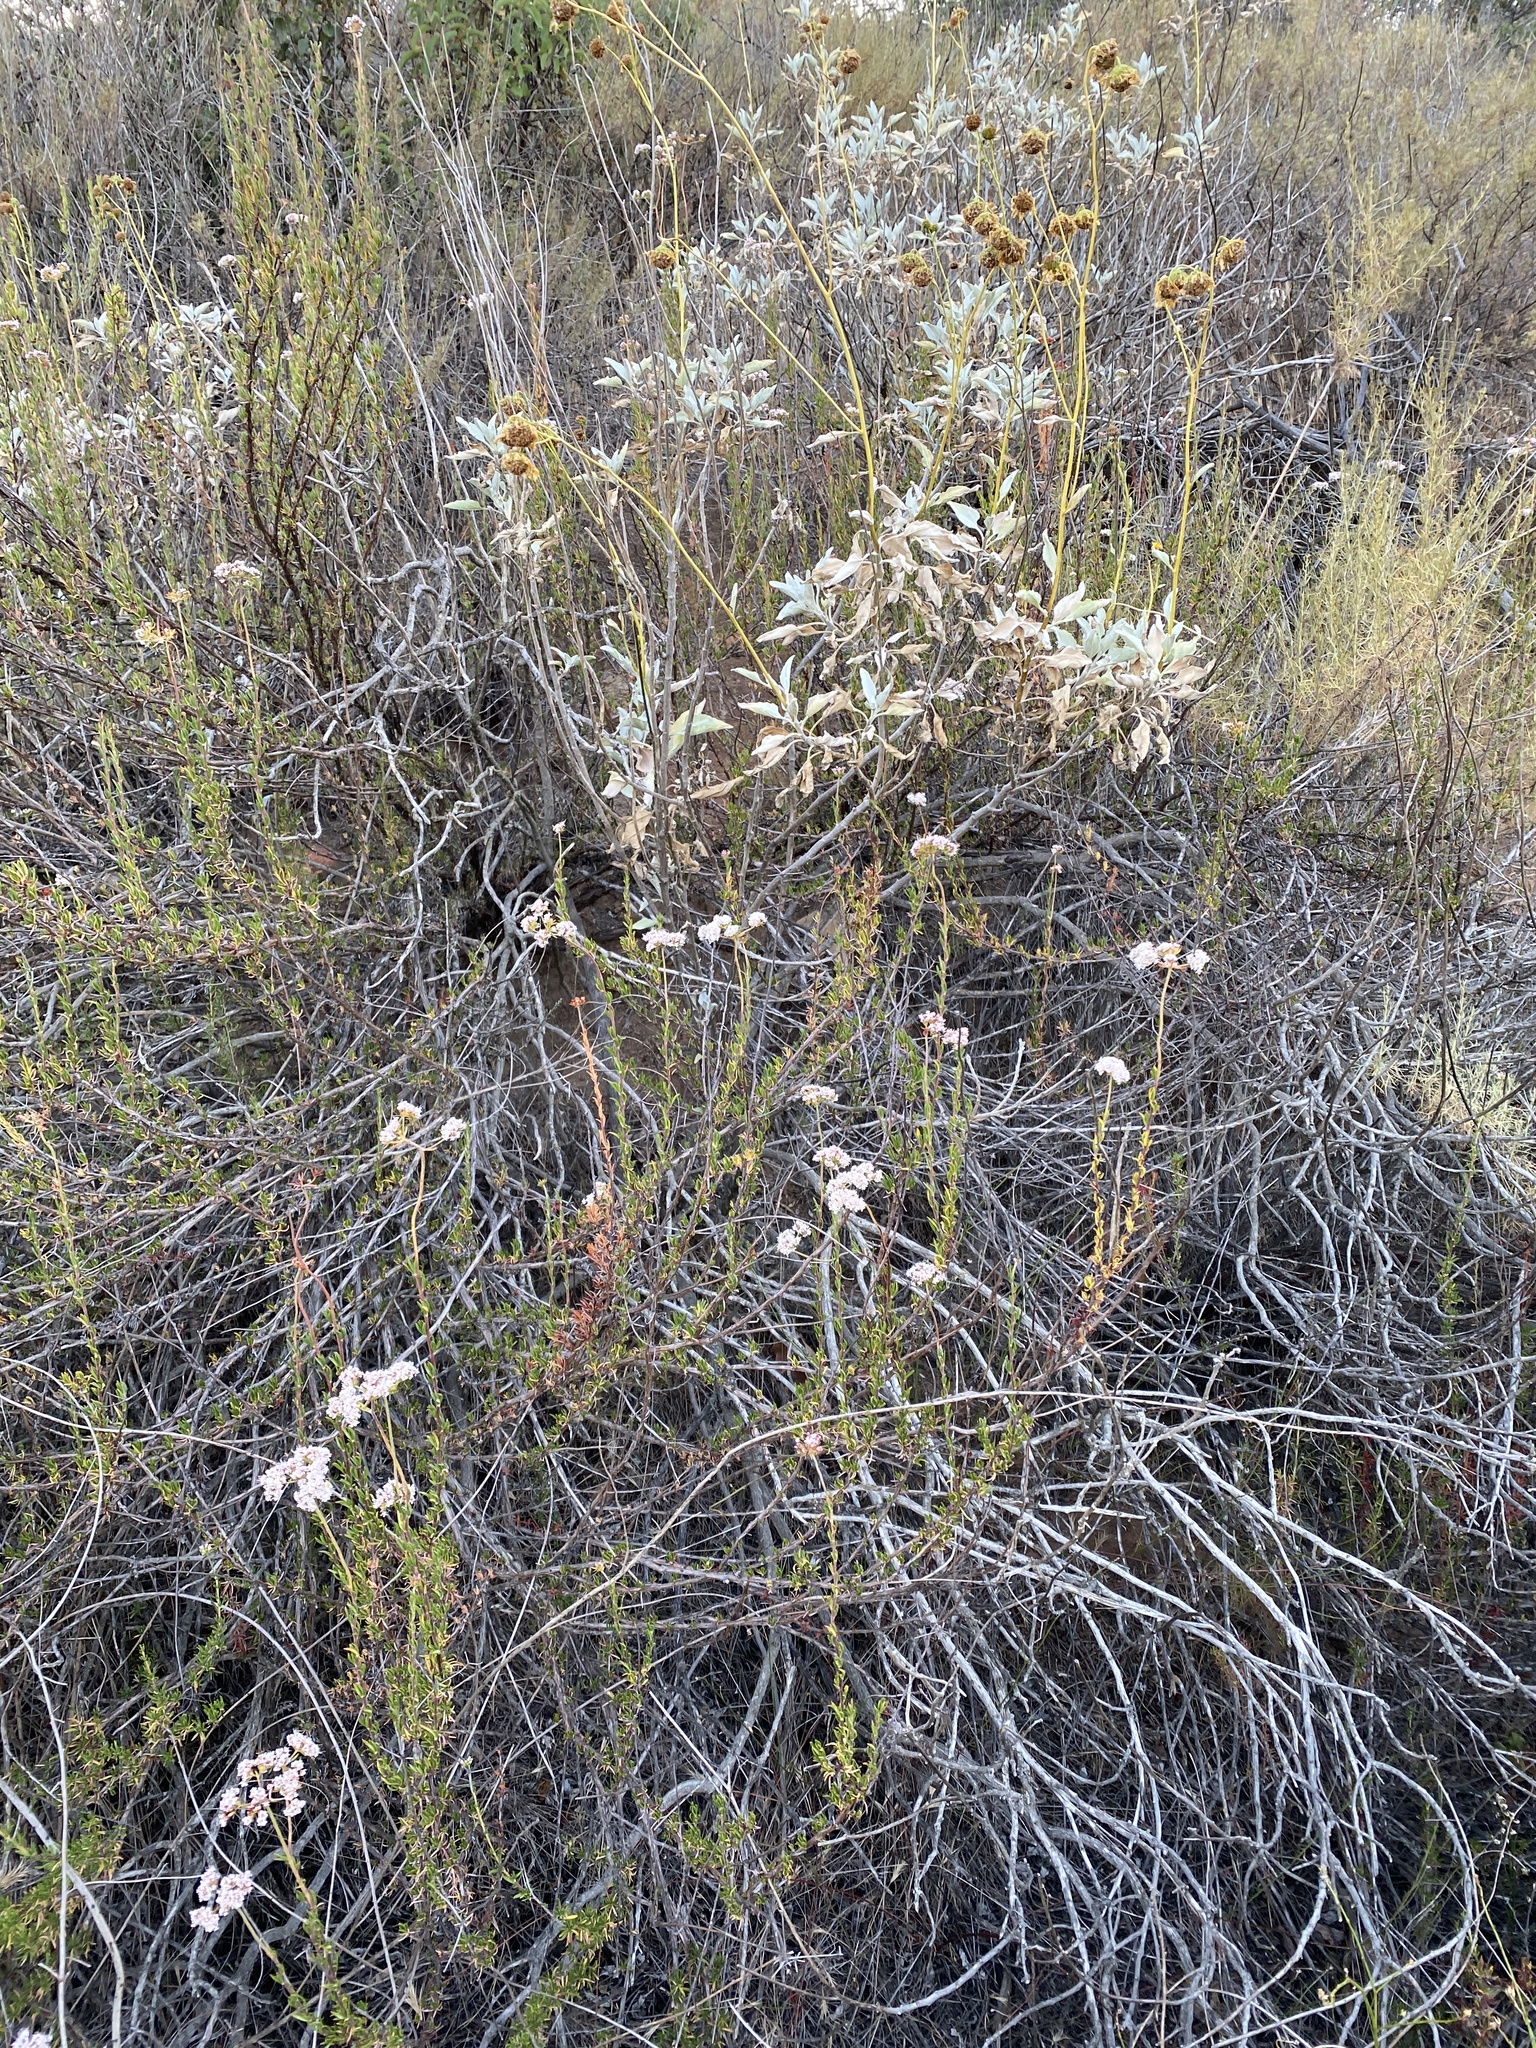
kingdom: Plantae
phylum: Tracheophyta
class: Magnoliopsida
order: Asterales
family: Asteraceae
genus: Encelia
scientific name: Encelia farinosa
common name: Brittlebush
